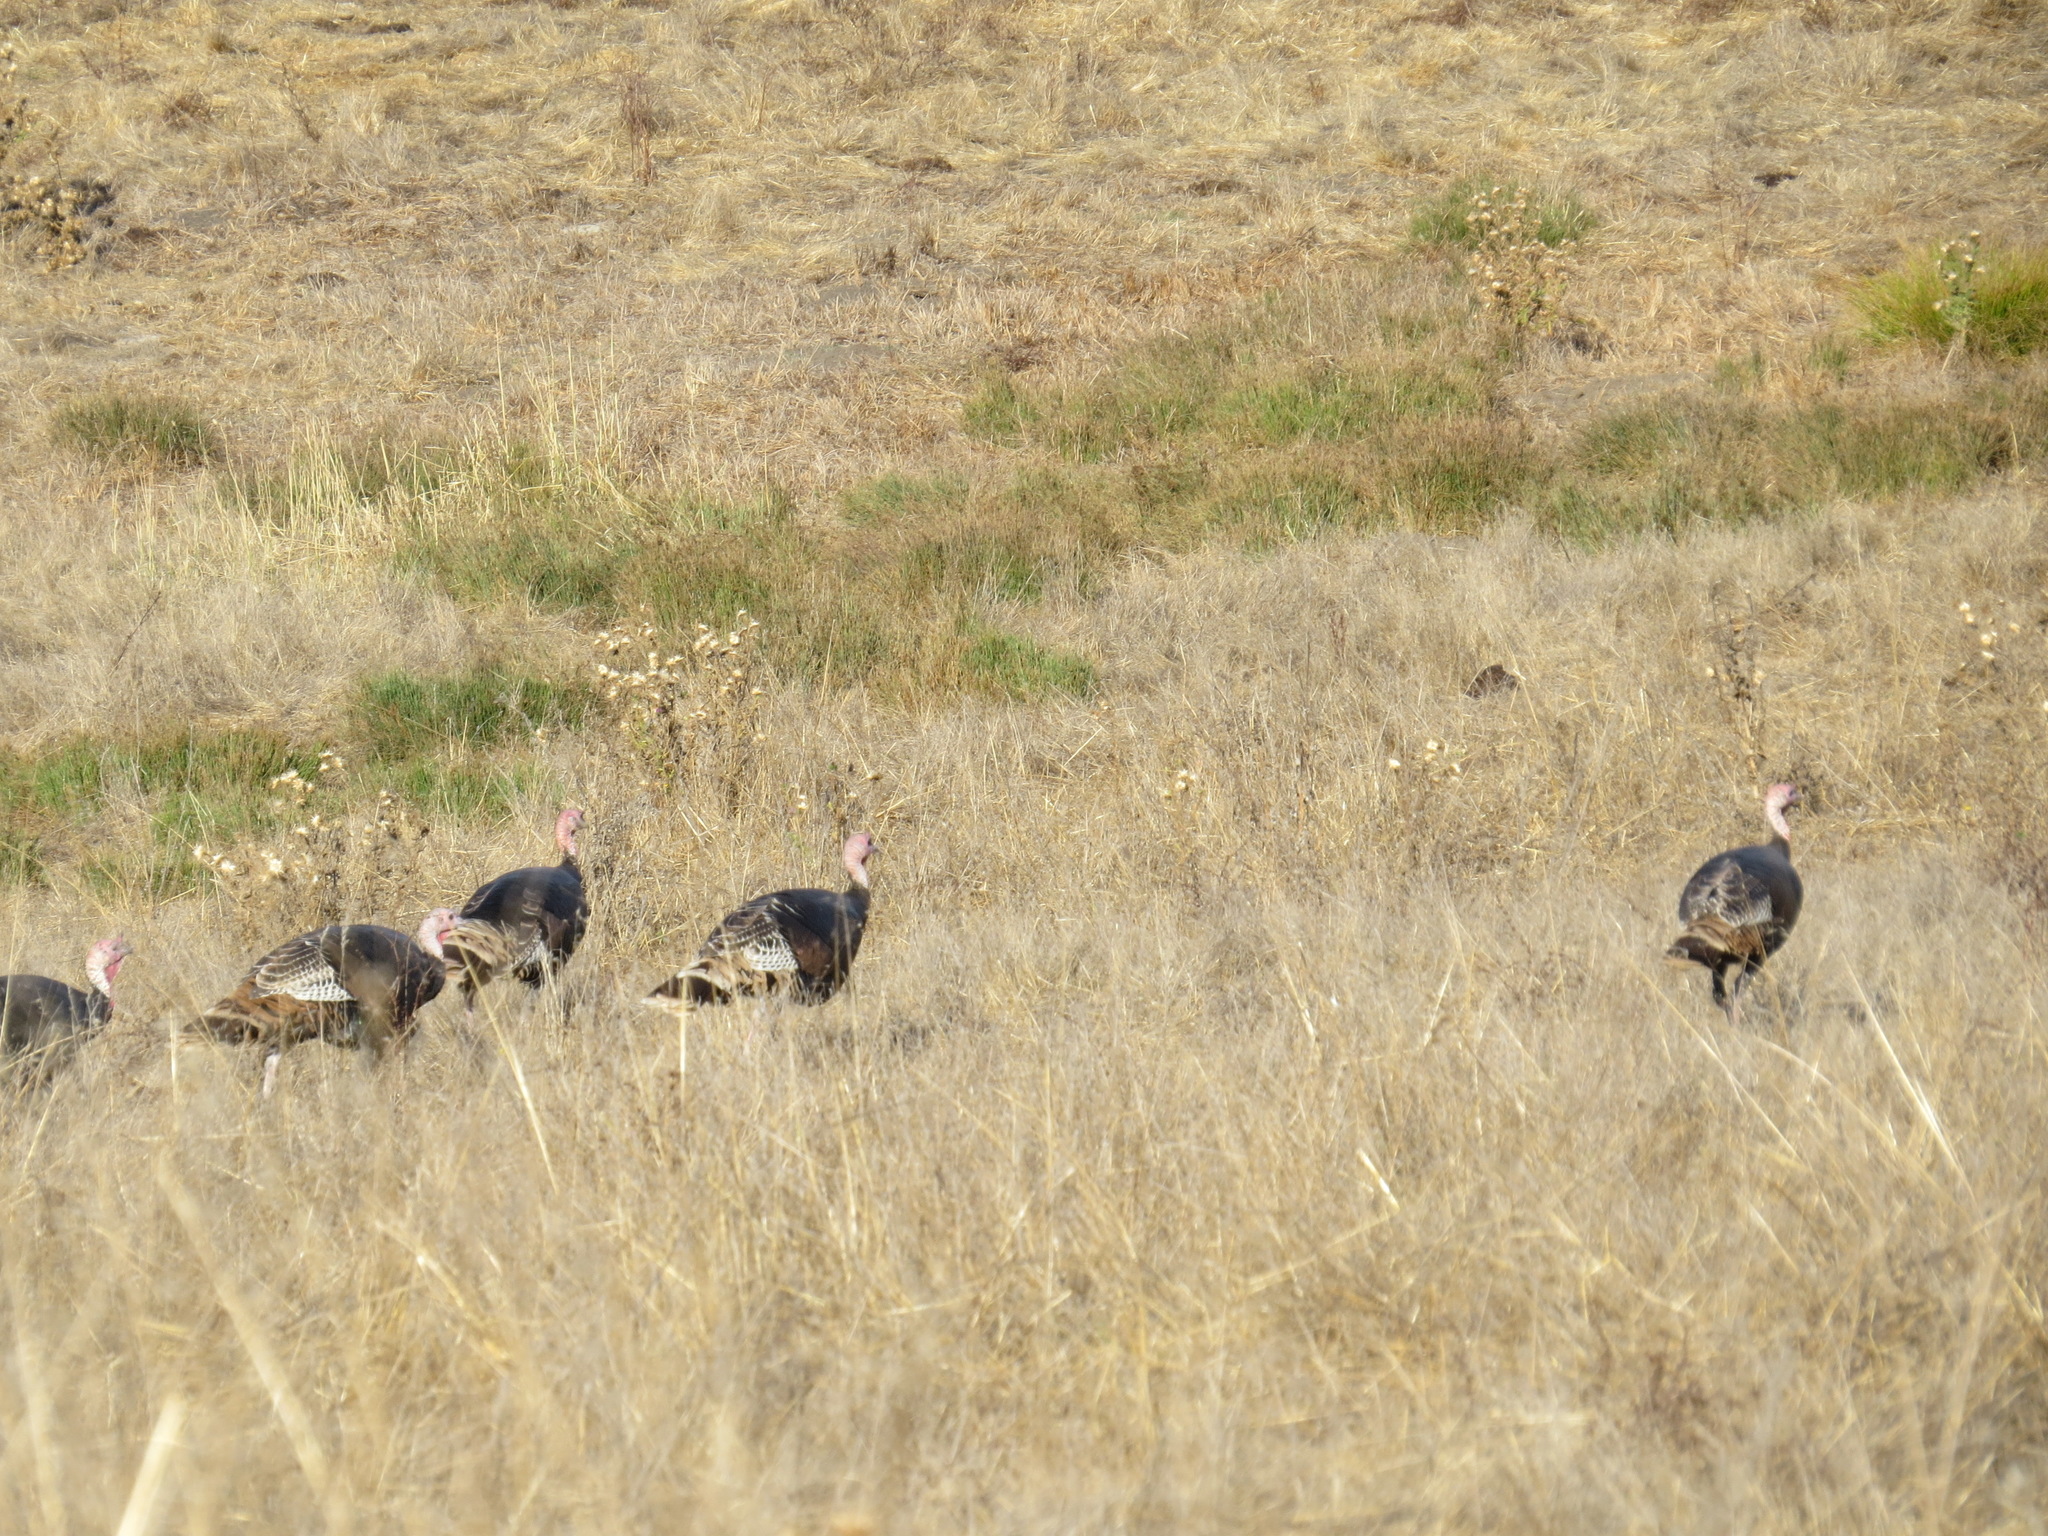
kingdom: Animalia
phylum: Chordata
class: Aves
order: Galliformes
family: Phasianidae
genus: Meleagris
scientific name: Meleagris gallopavo
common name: Wild turkey
